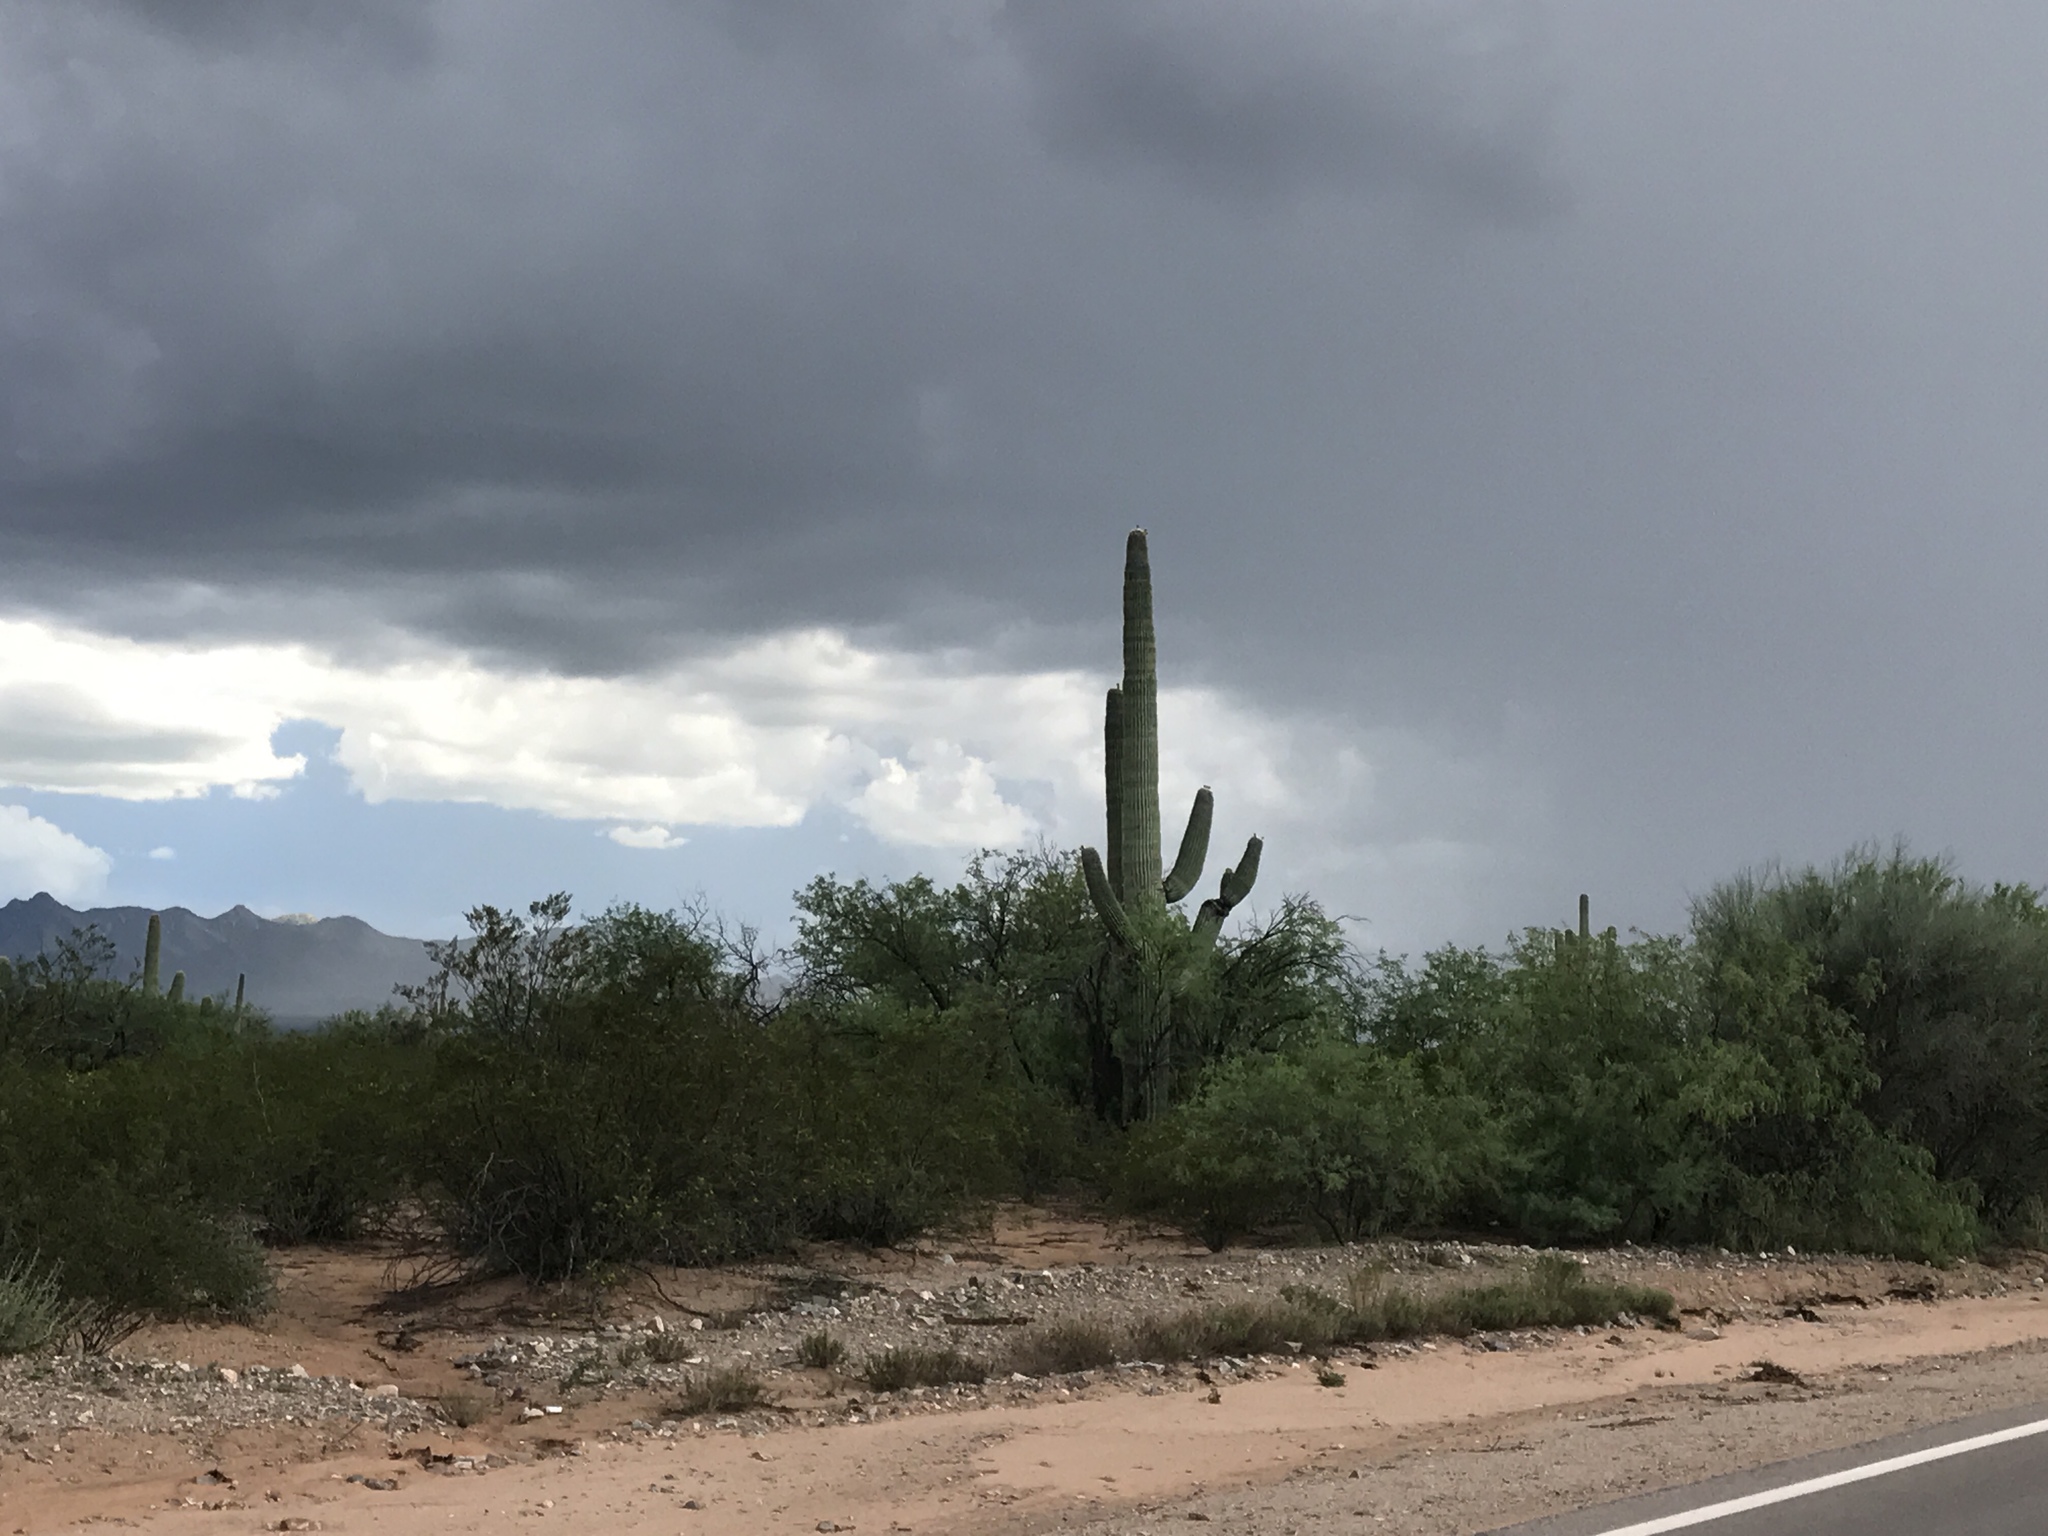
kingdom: Plantae
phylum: Tracheophyta
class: Magnoliopsida
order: Caryophyllales
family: Cactaceae
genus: Carnegiea
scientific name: Carnegiea gigantea
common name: Saguaro
